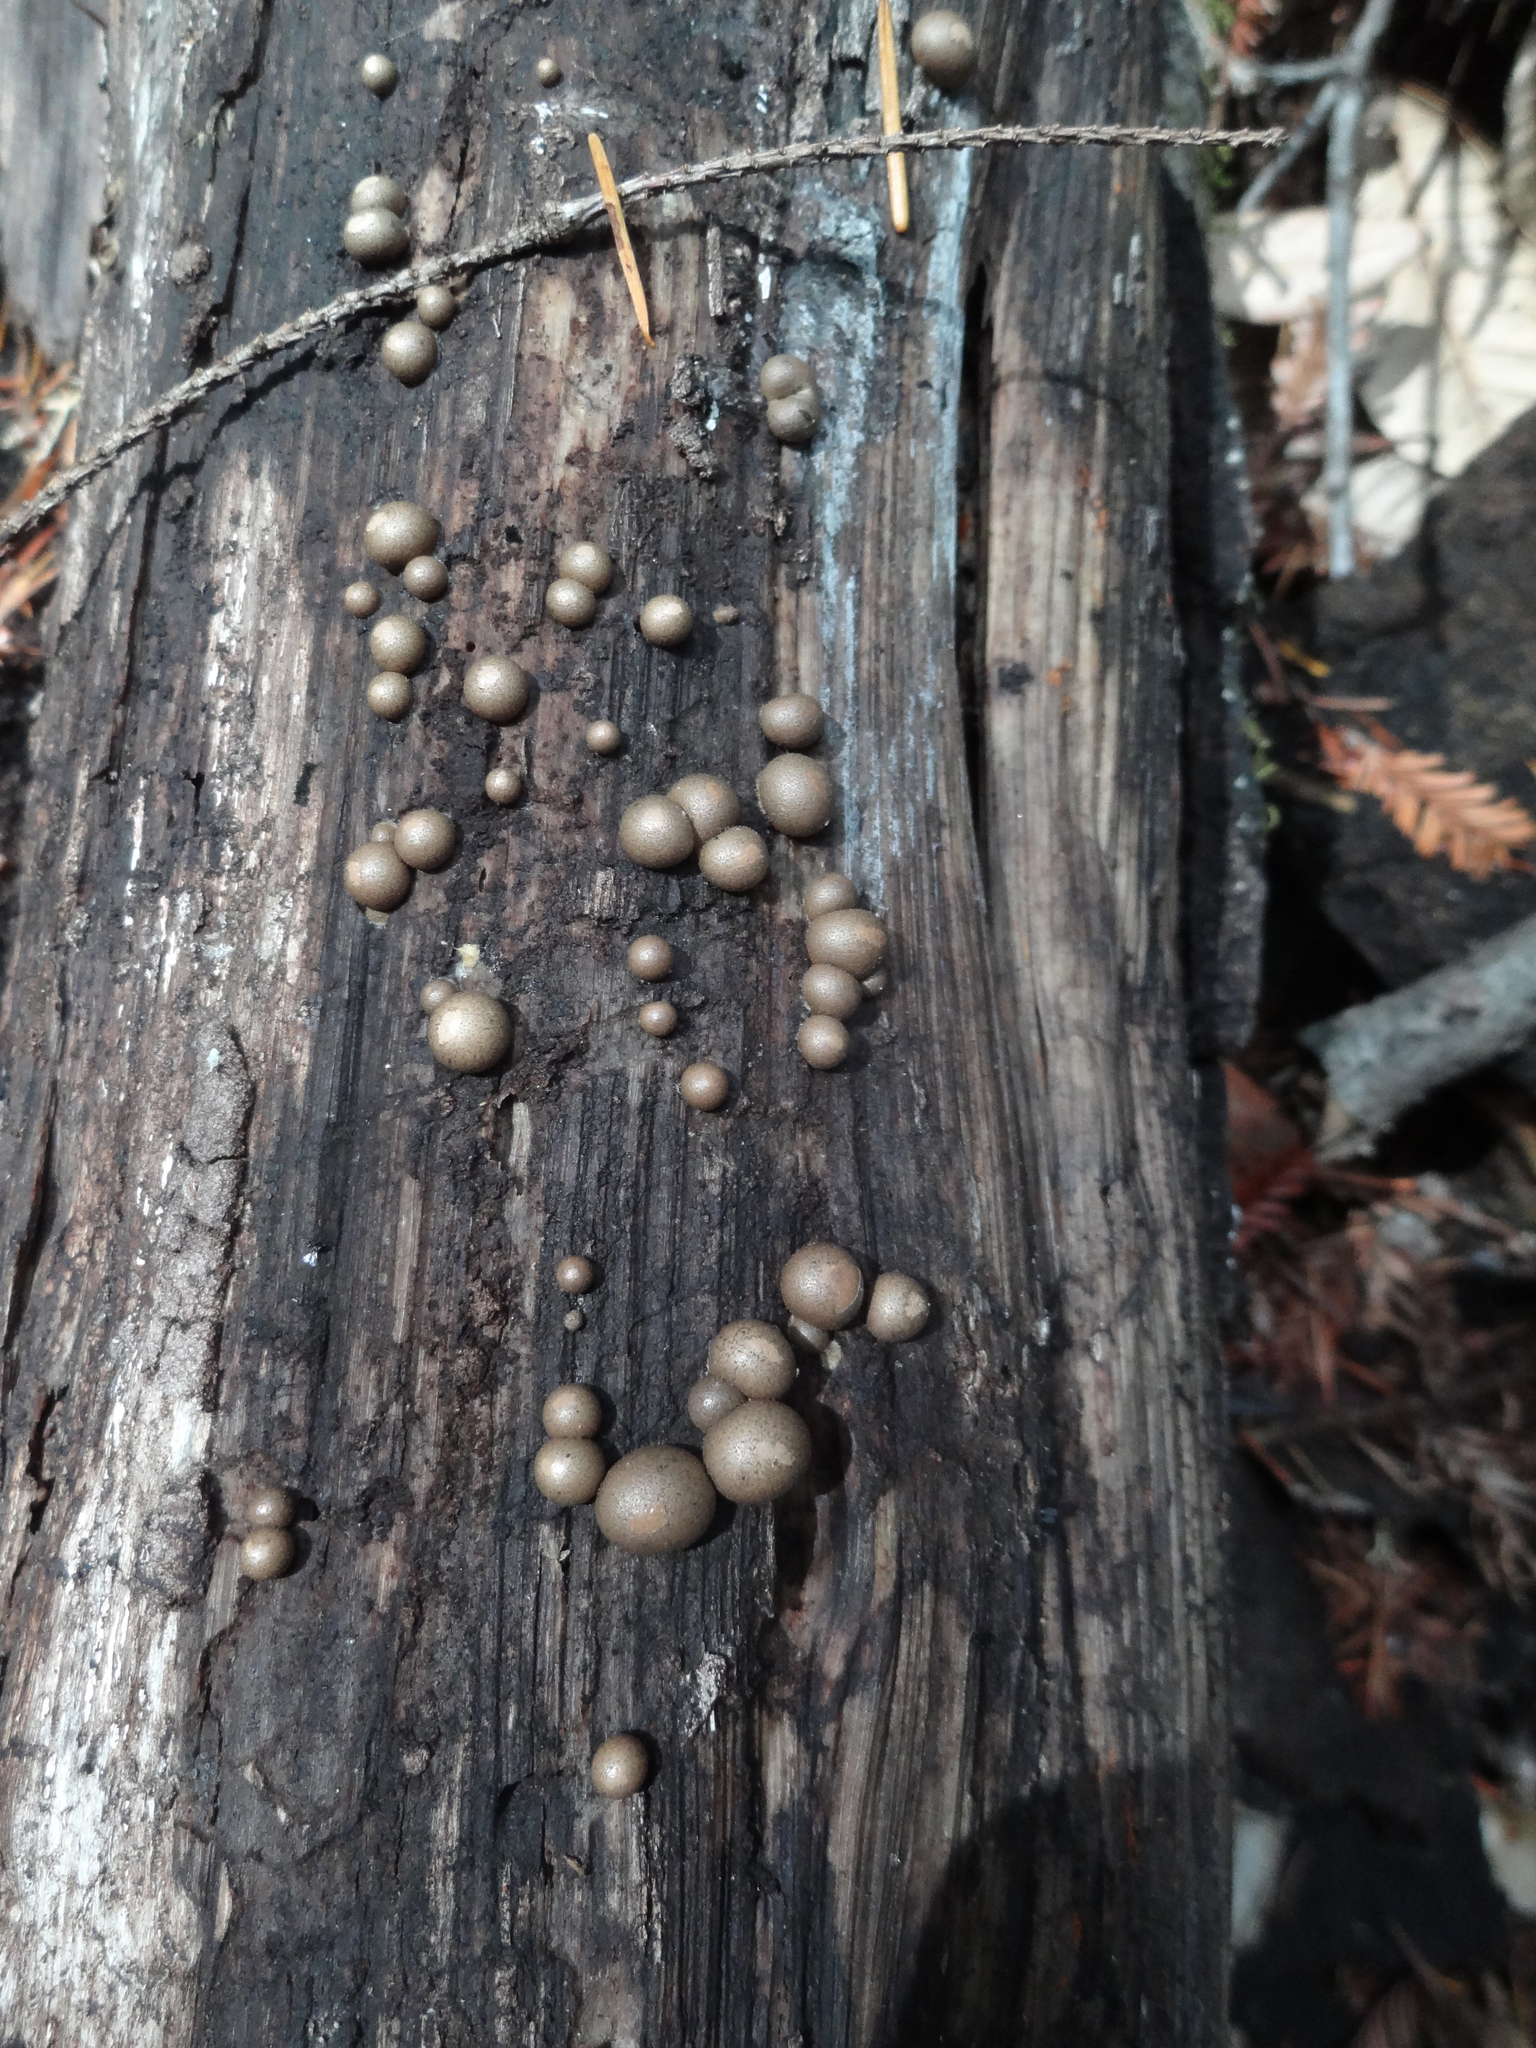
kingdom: Protozoa
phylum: Mycetozoa
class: Myxomycetes
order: Cribrariales
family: Tubiferaceae
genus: Lycogala
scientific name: Lycogala epidendrum
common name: Wolf's milk
